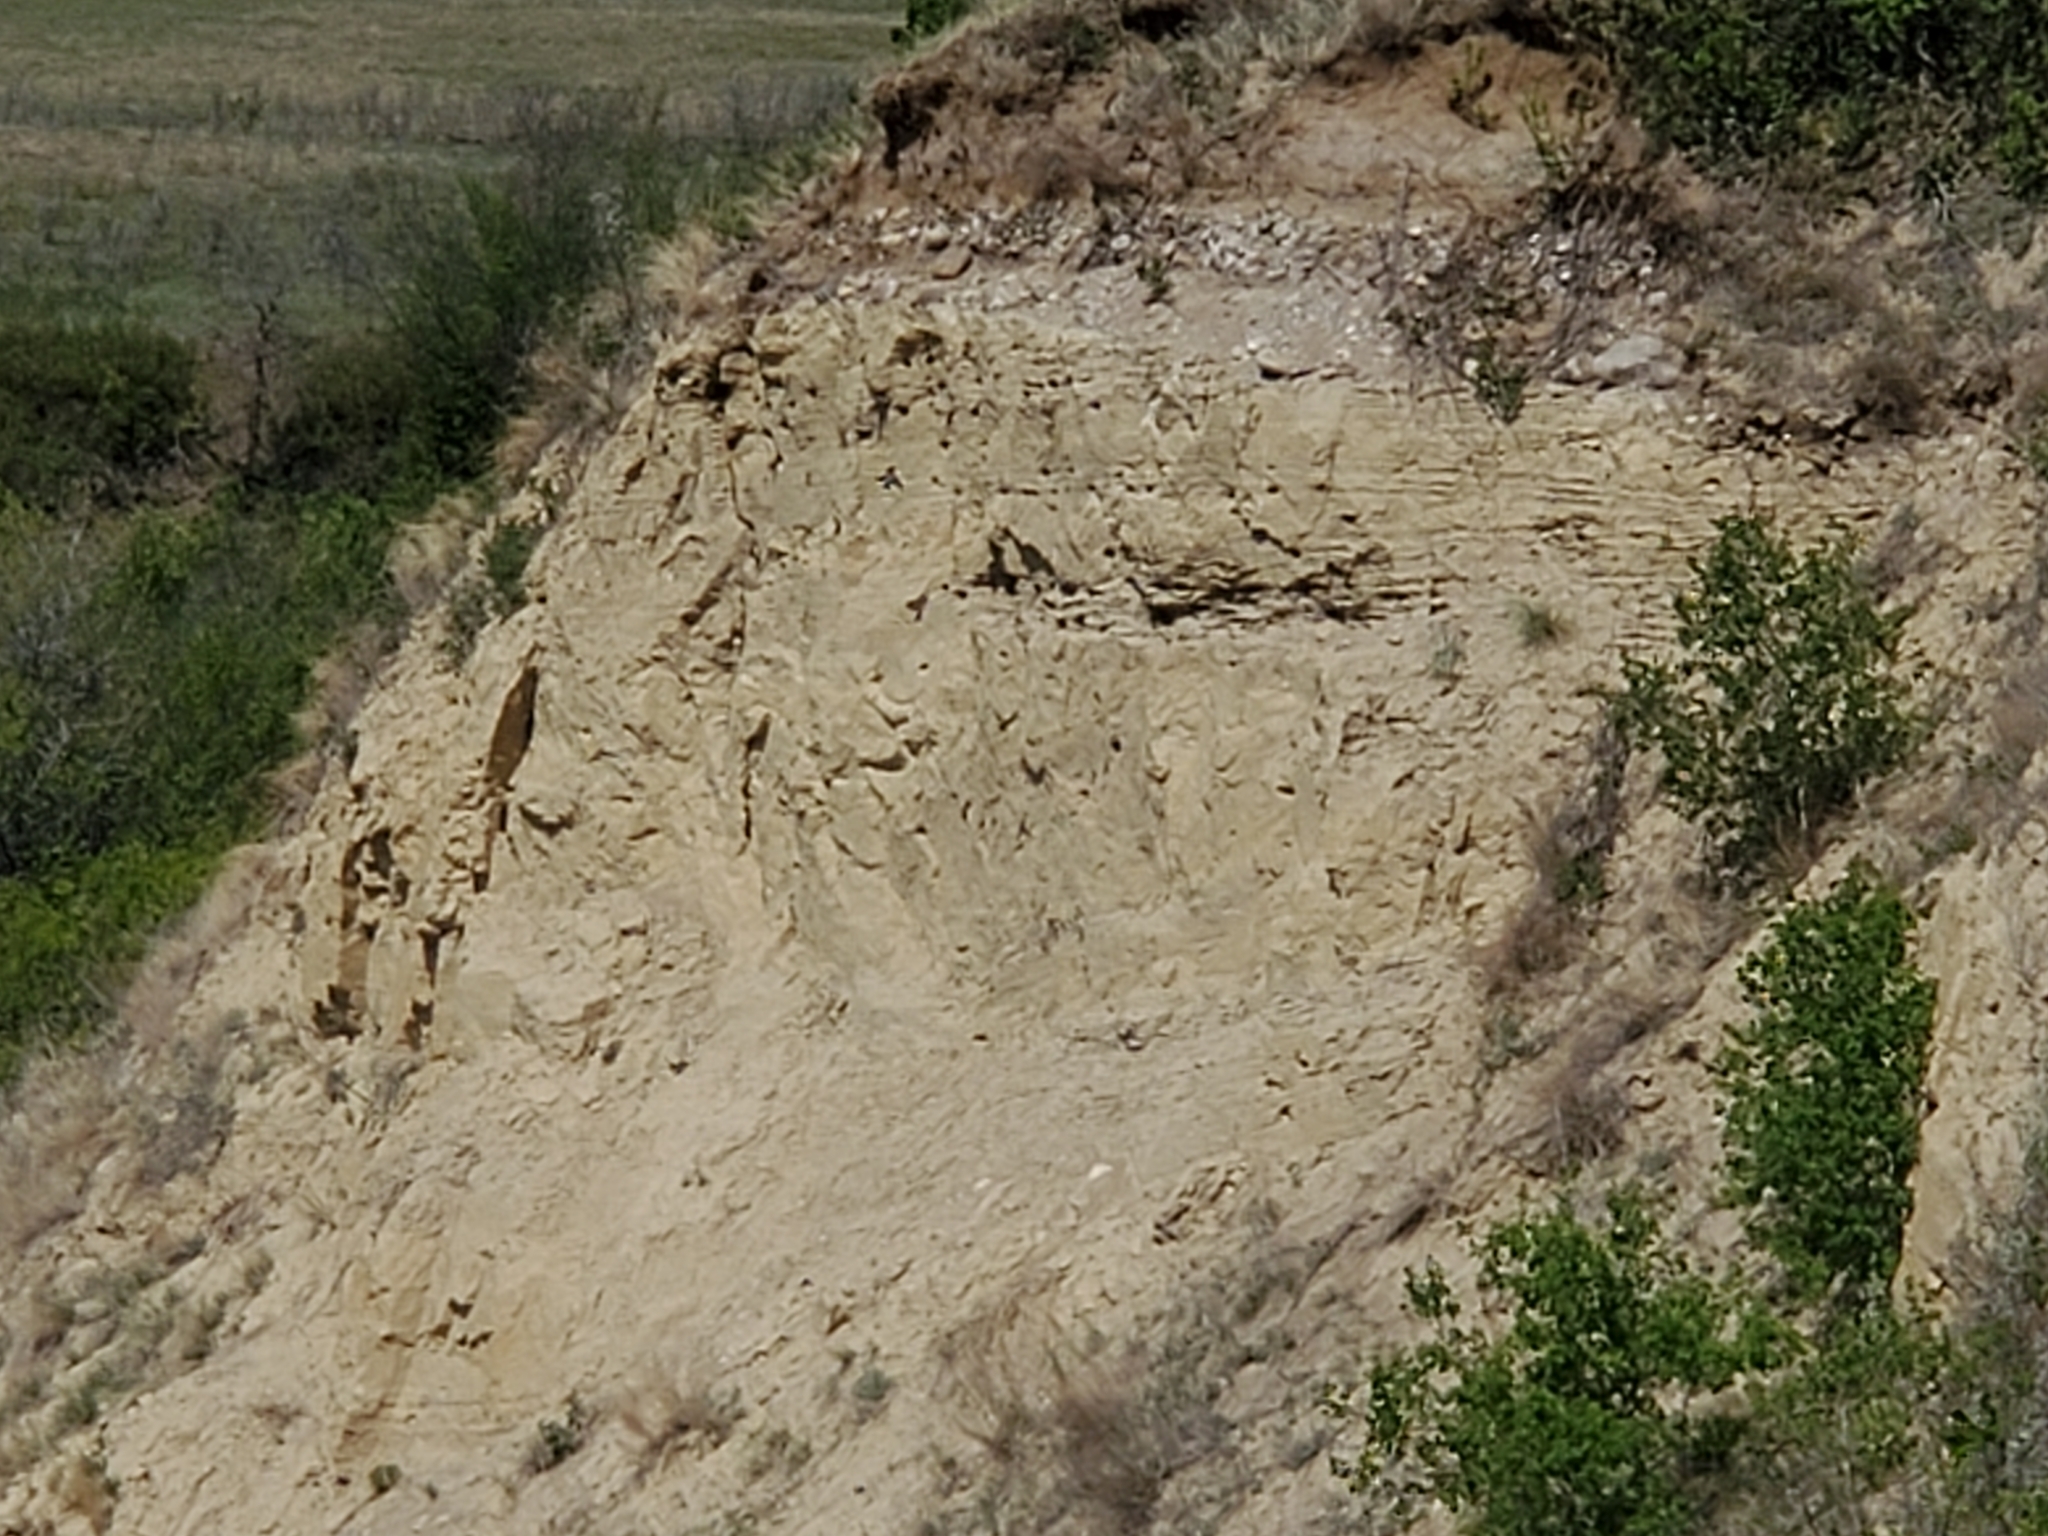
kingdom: Animalia
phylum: Chordata
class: Aves
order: Passeriformes
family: Hirundinidae
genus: Riparia
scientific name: Riparia riparia
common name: Sand martin
